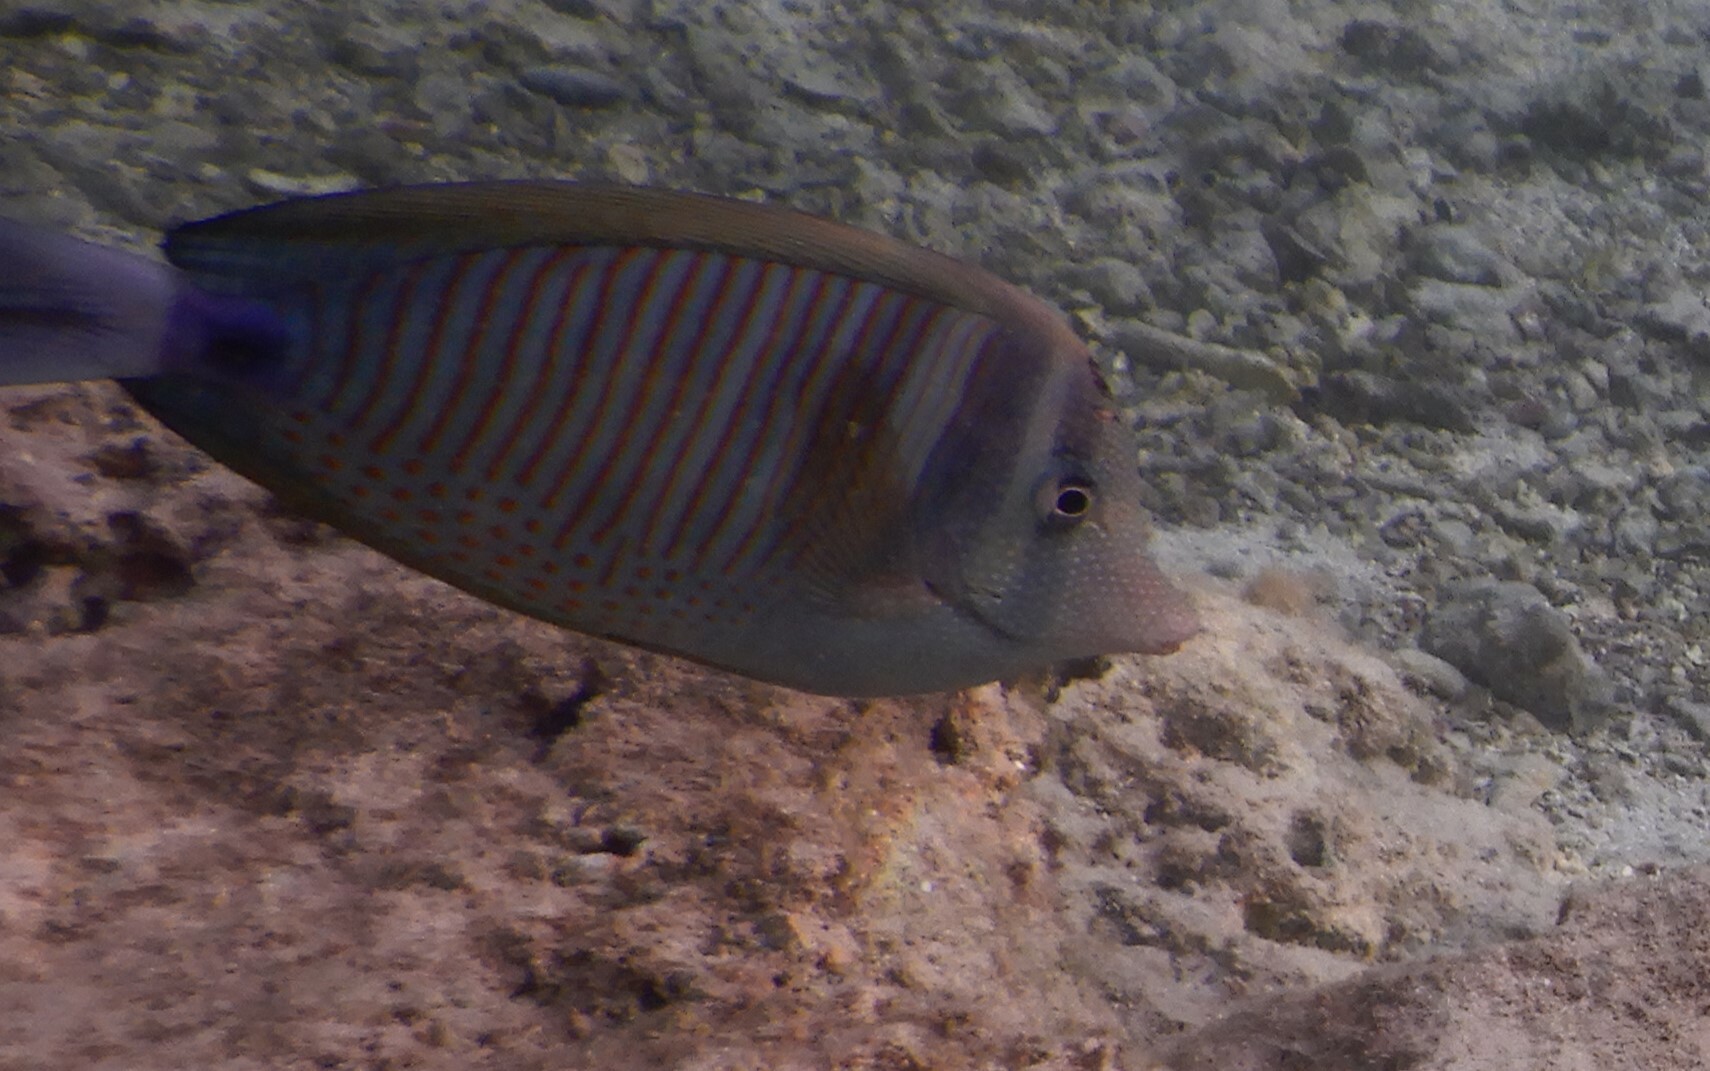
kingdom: Animalia
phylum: Chordata
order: Perciformes
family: Acanthuridae
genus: Zebrasoma
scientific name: Zebrasoma desjardinii
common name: Desjardin's sailfin tang
